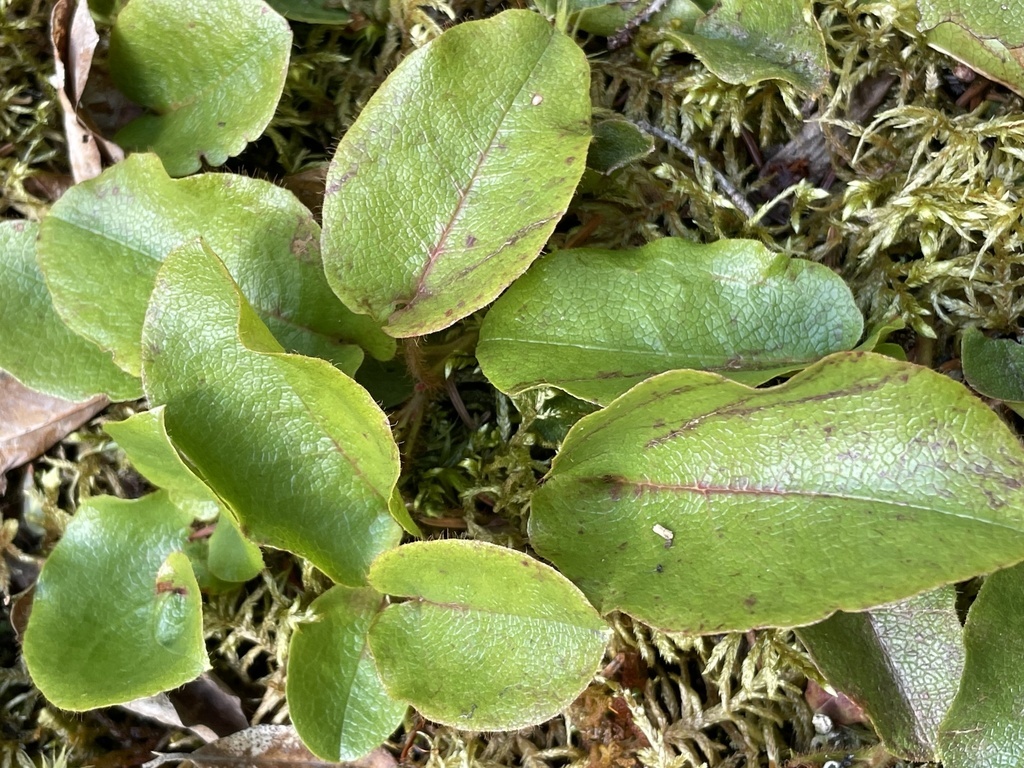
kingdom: Plantae
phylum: Tracheophyta
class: Magnoliopsida
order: Ericales
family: Ericaceae
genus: Epigaea
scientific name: Epigaea repens
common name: Gravelroot
